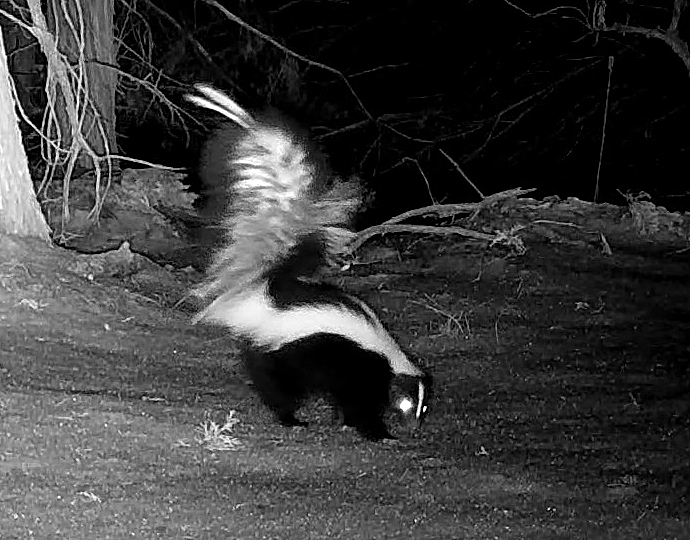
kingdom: Animalia
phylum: Chordata
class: Mammalia
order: Carnivora
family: Mephitidae
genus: Mephitis
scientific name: Mephitis mephitis
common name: Striped skunk
